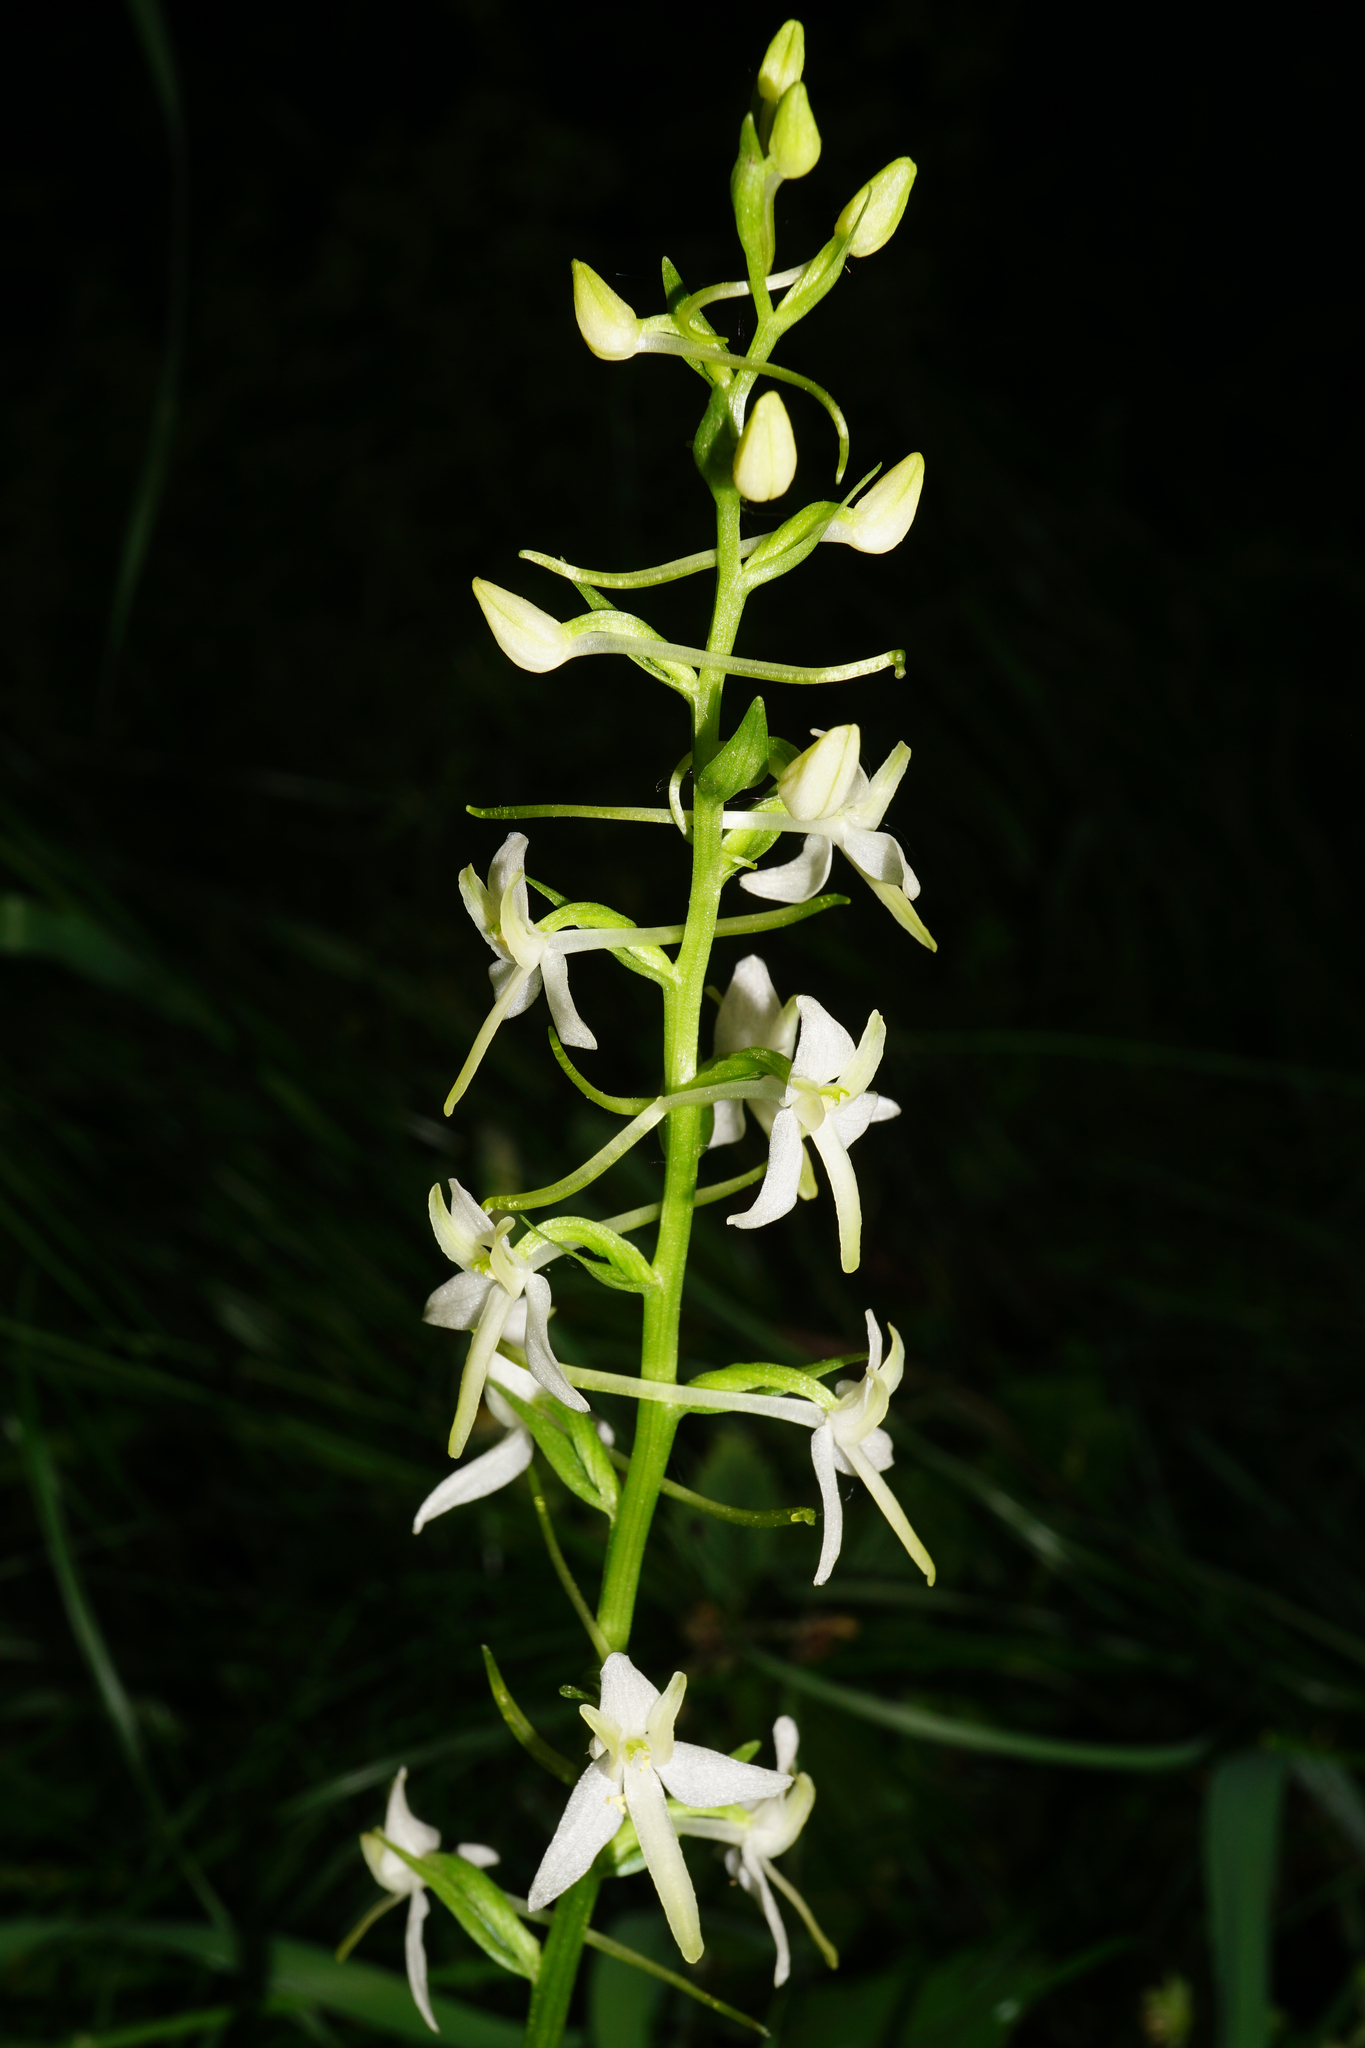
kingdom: Plantae
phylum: Tracheophyta
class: Liliopsida
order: Asparagales
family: Orchidaceae
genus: Platanthera
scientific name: Platanthera bifolia
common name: Lesser butterfly-orchid
